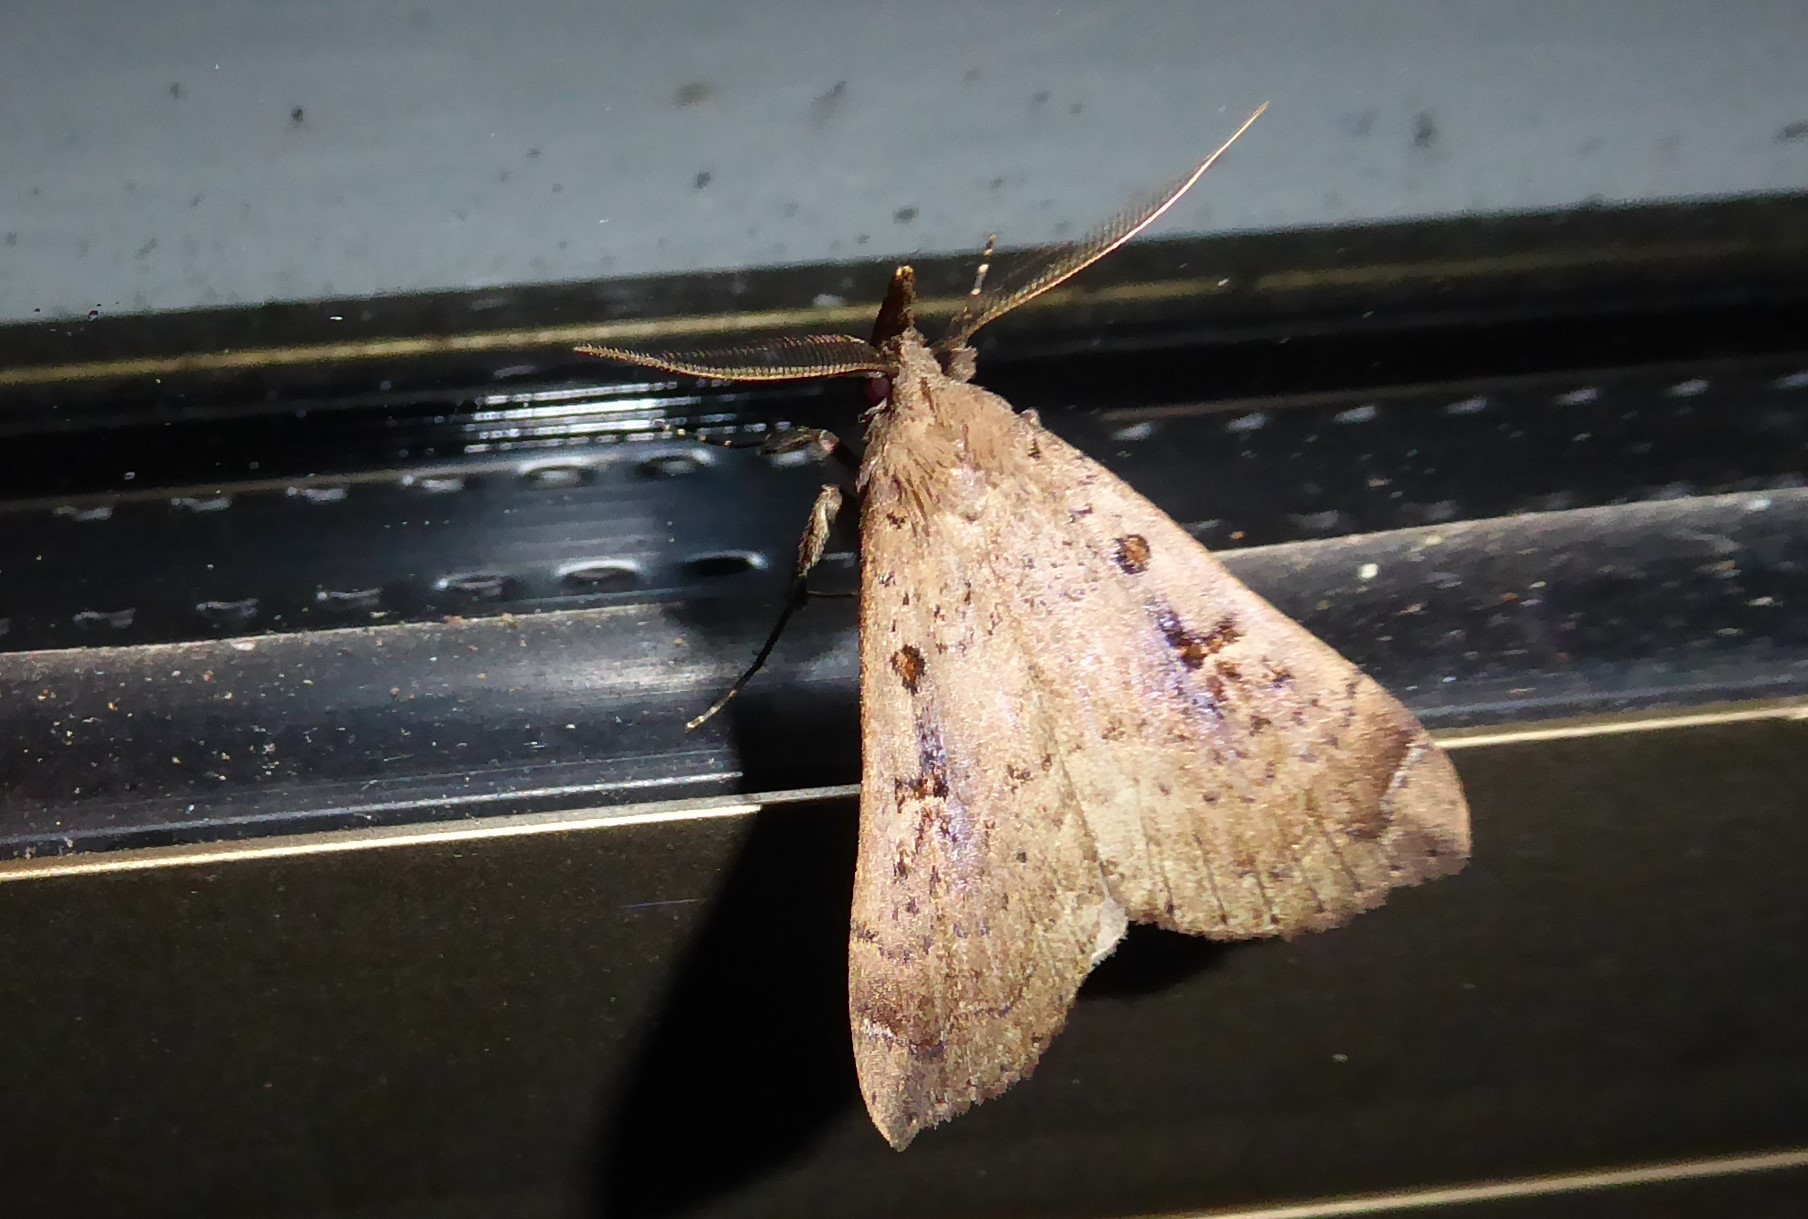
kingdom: Animalia
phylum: Arthropoda
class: Insecta
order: Lepidoptera
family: Erebidae
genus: Rhapsa
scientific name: Rhapsa scotosialis
